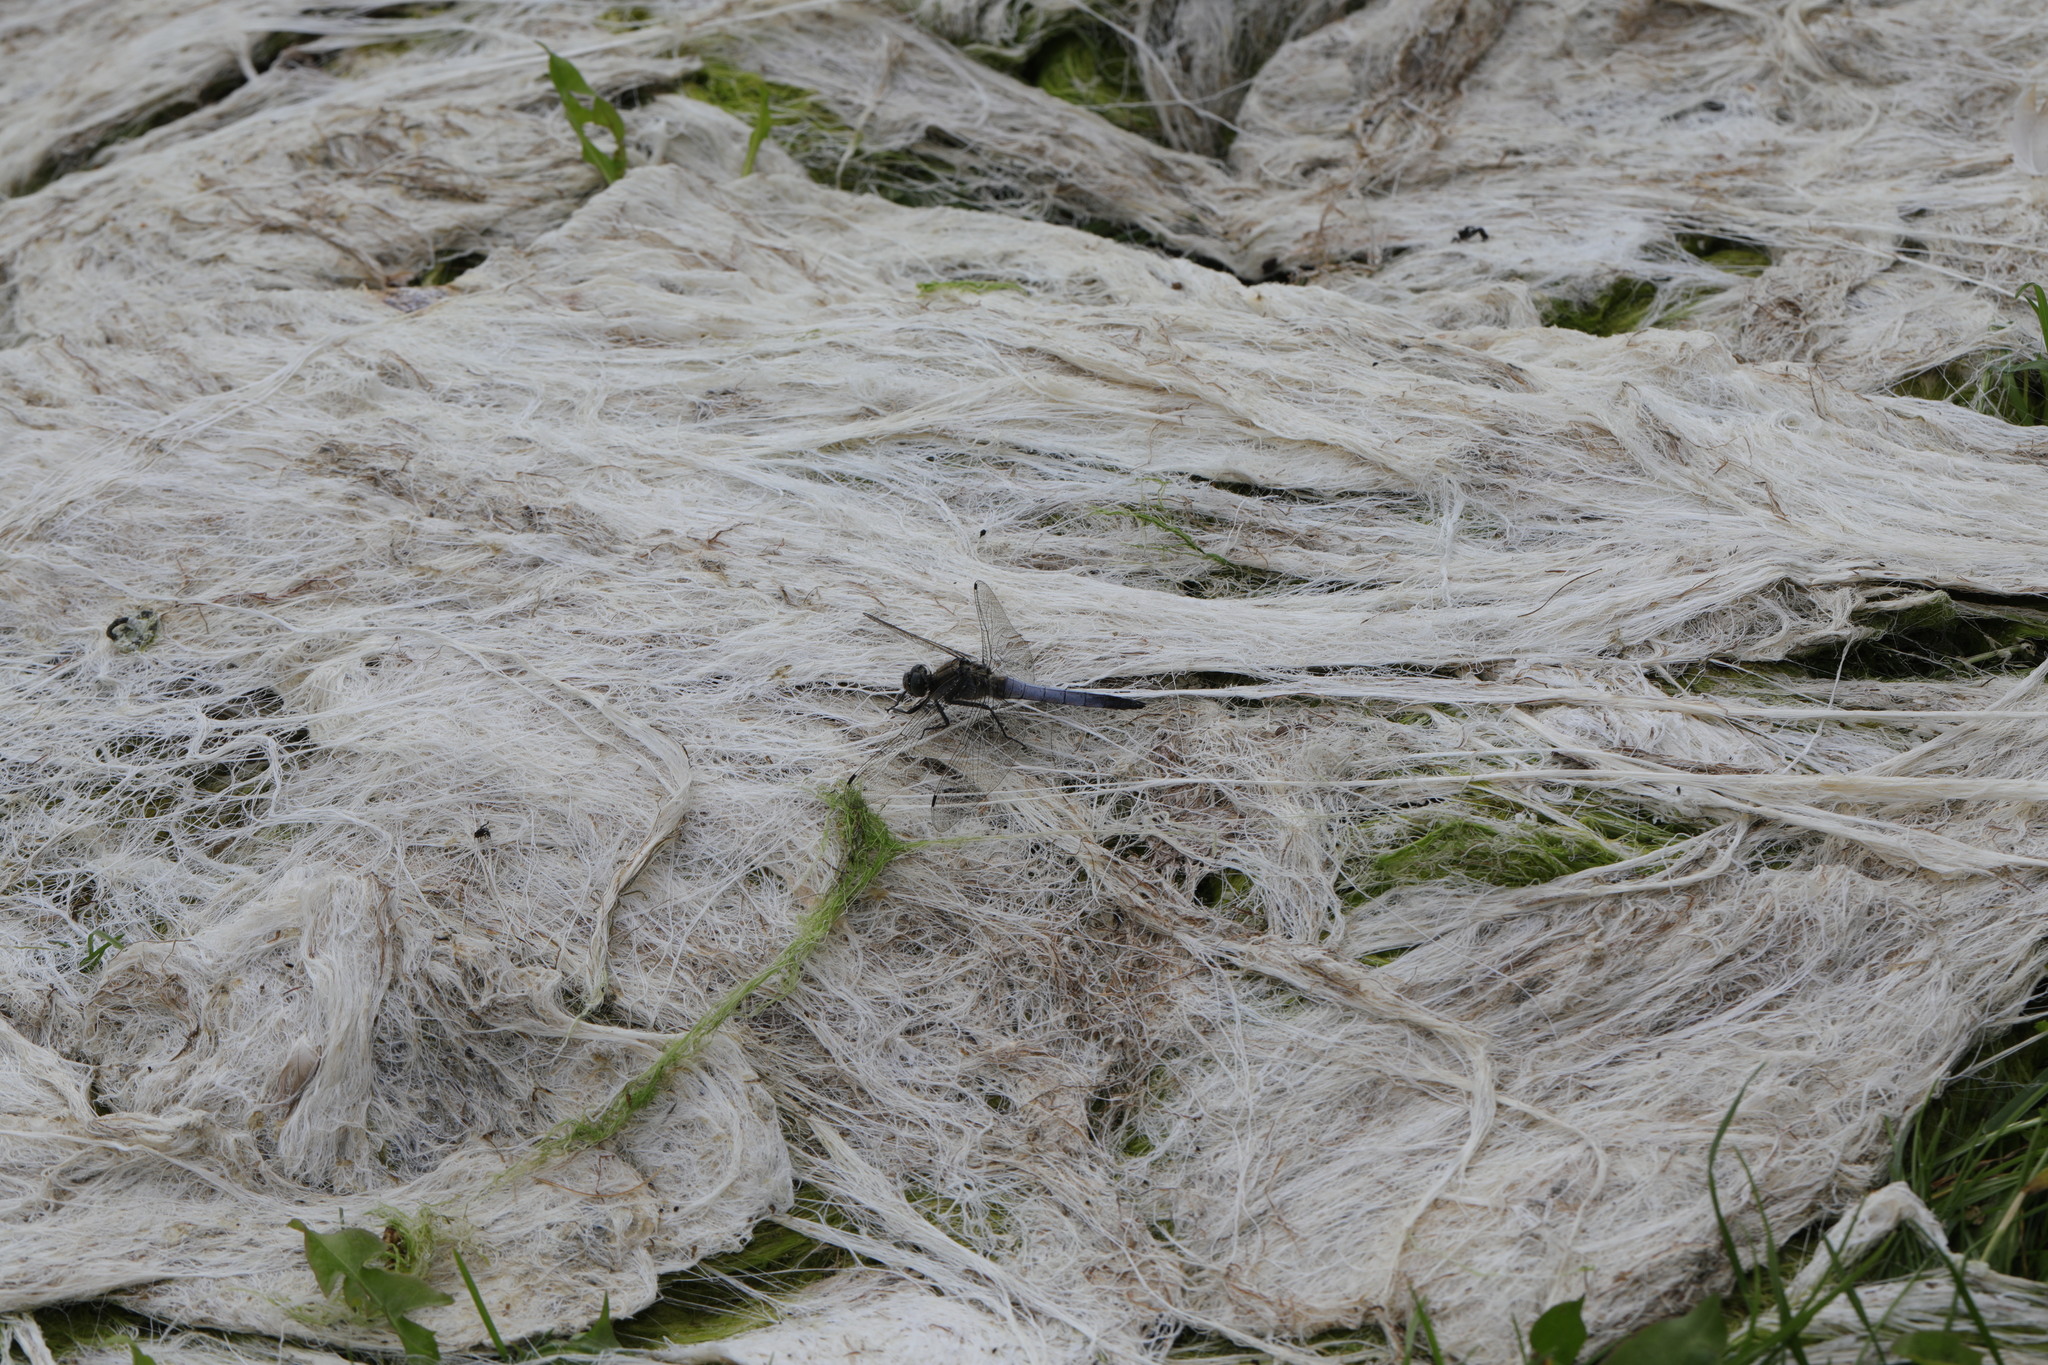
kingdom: Animalia
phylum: Arthropoda
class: Insecta
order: Odonata
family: Libellulidae
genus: Orthetrum
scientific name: Orthetrum cancellatum
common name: Black-tailed skimmer
